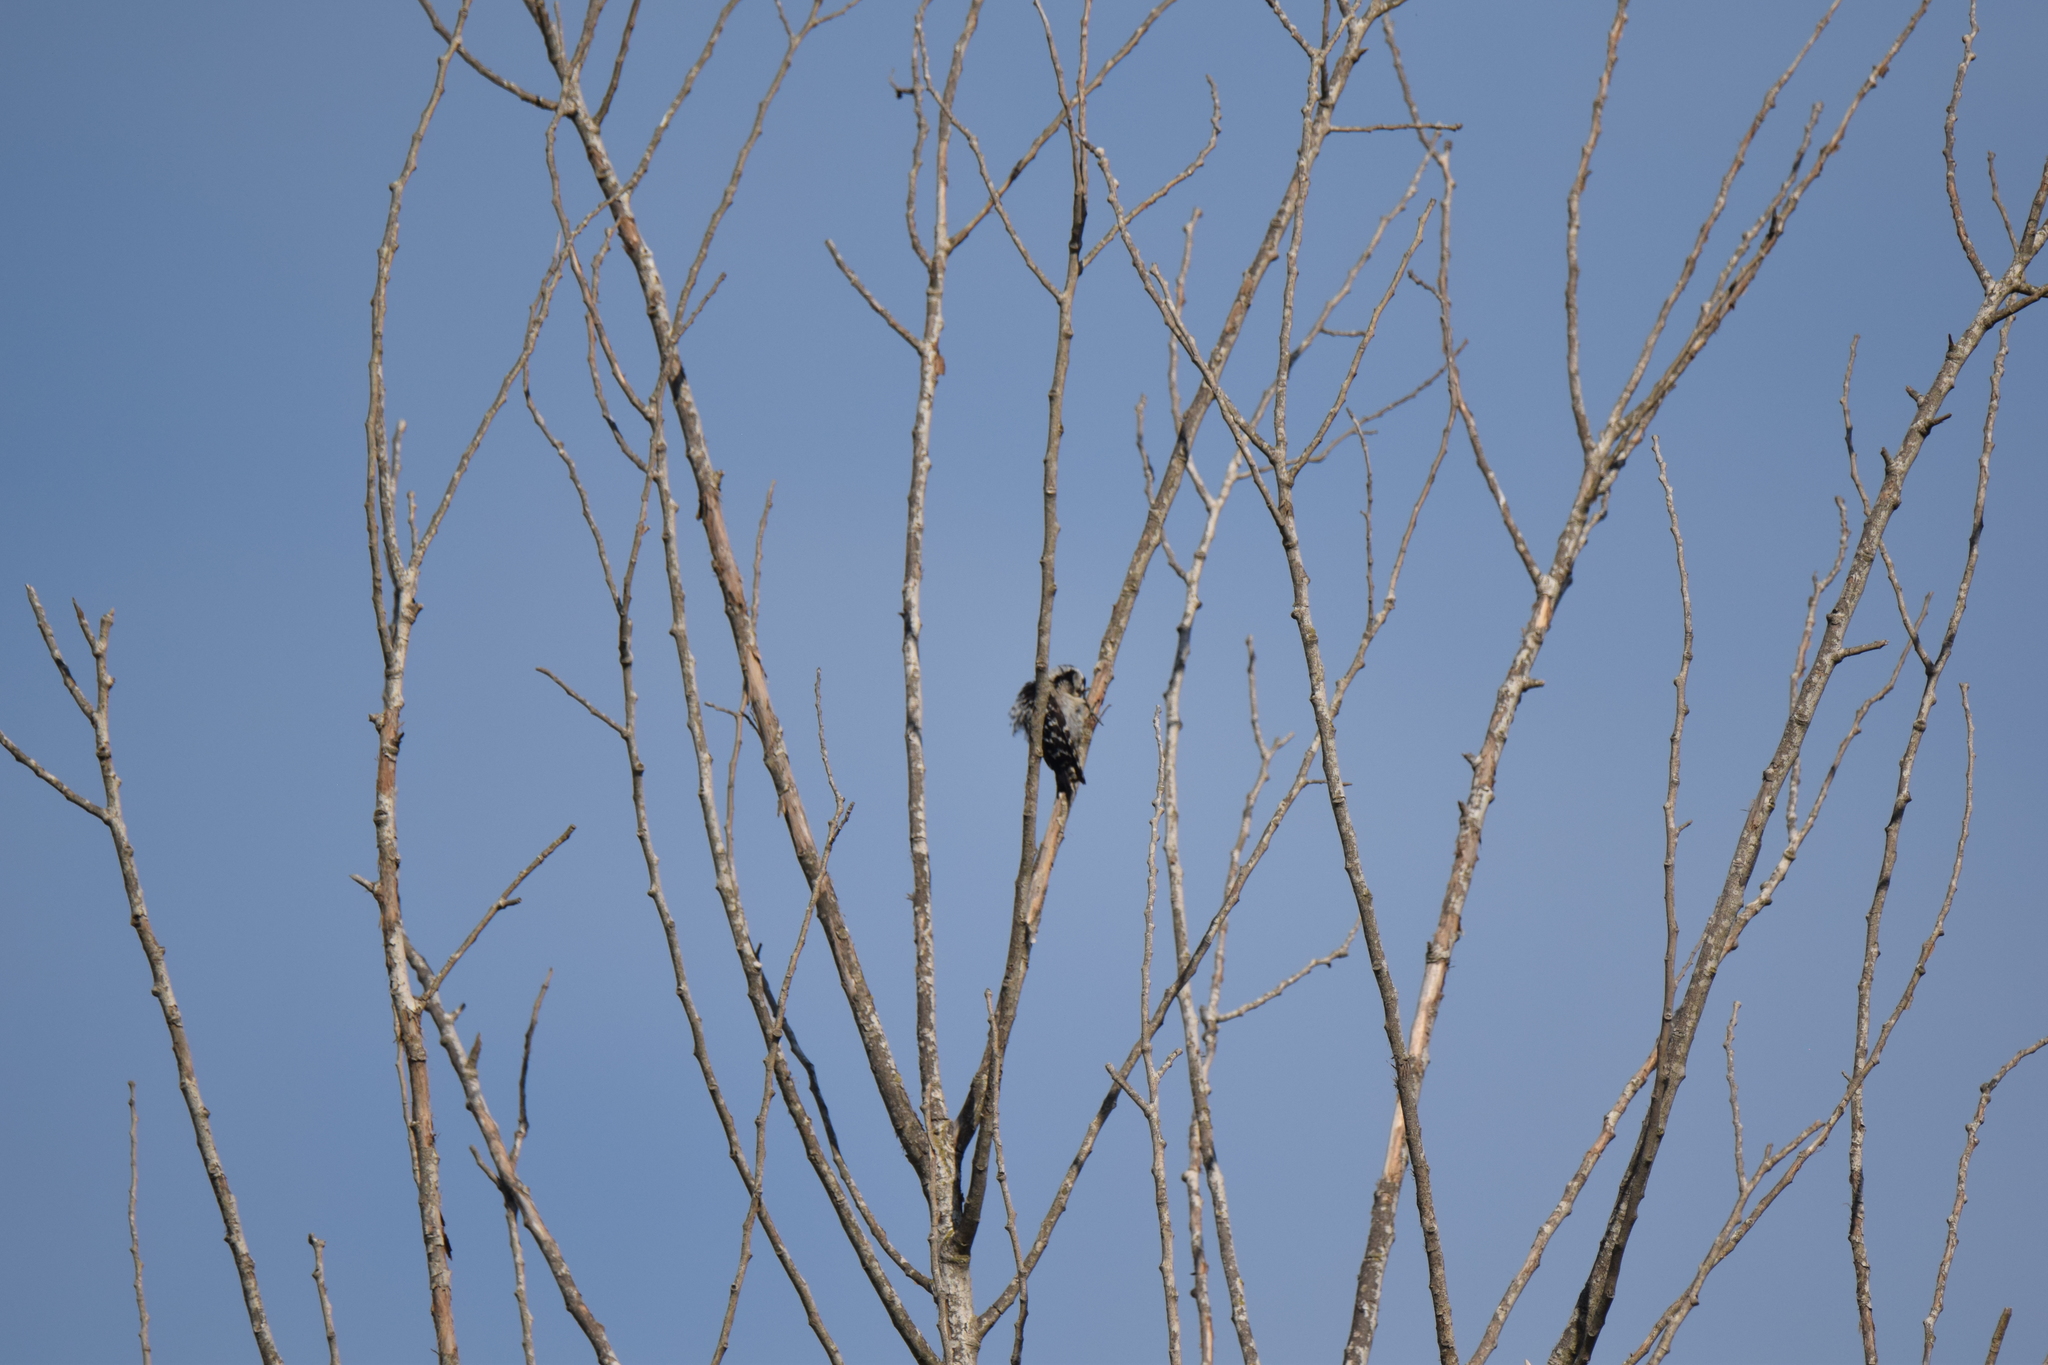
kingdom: Animalia
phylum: Chordata
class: Aves
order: Piciformes
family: Picidae
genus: Dryobates
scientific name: Dryobates minor
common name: Lesser spotted woodpecker
